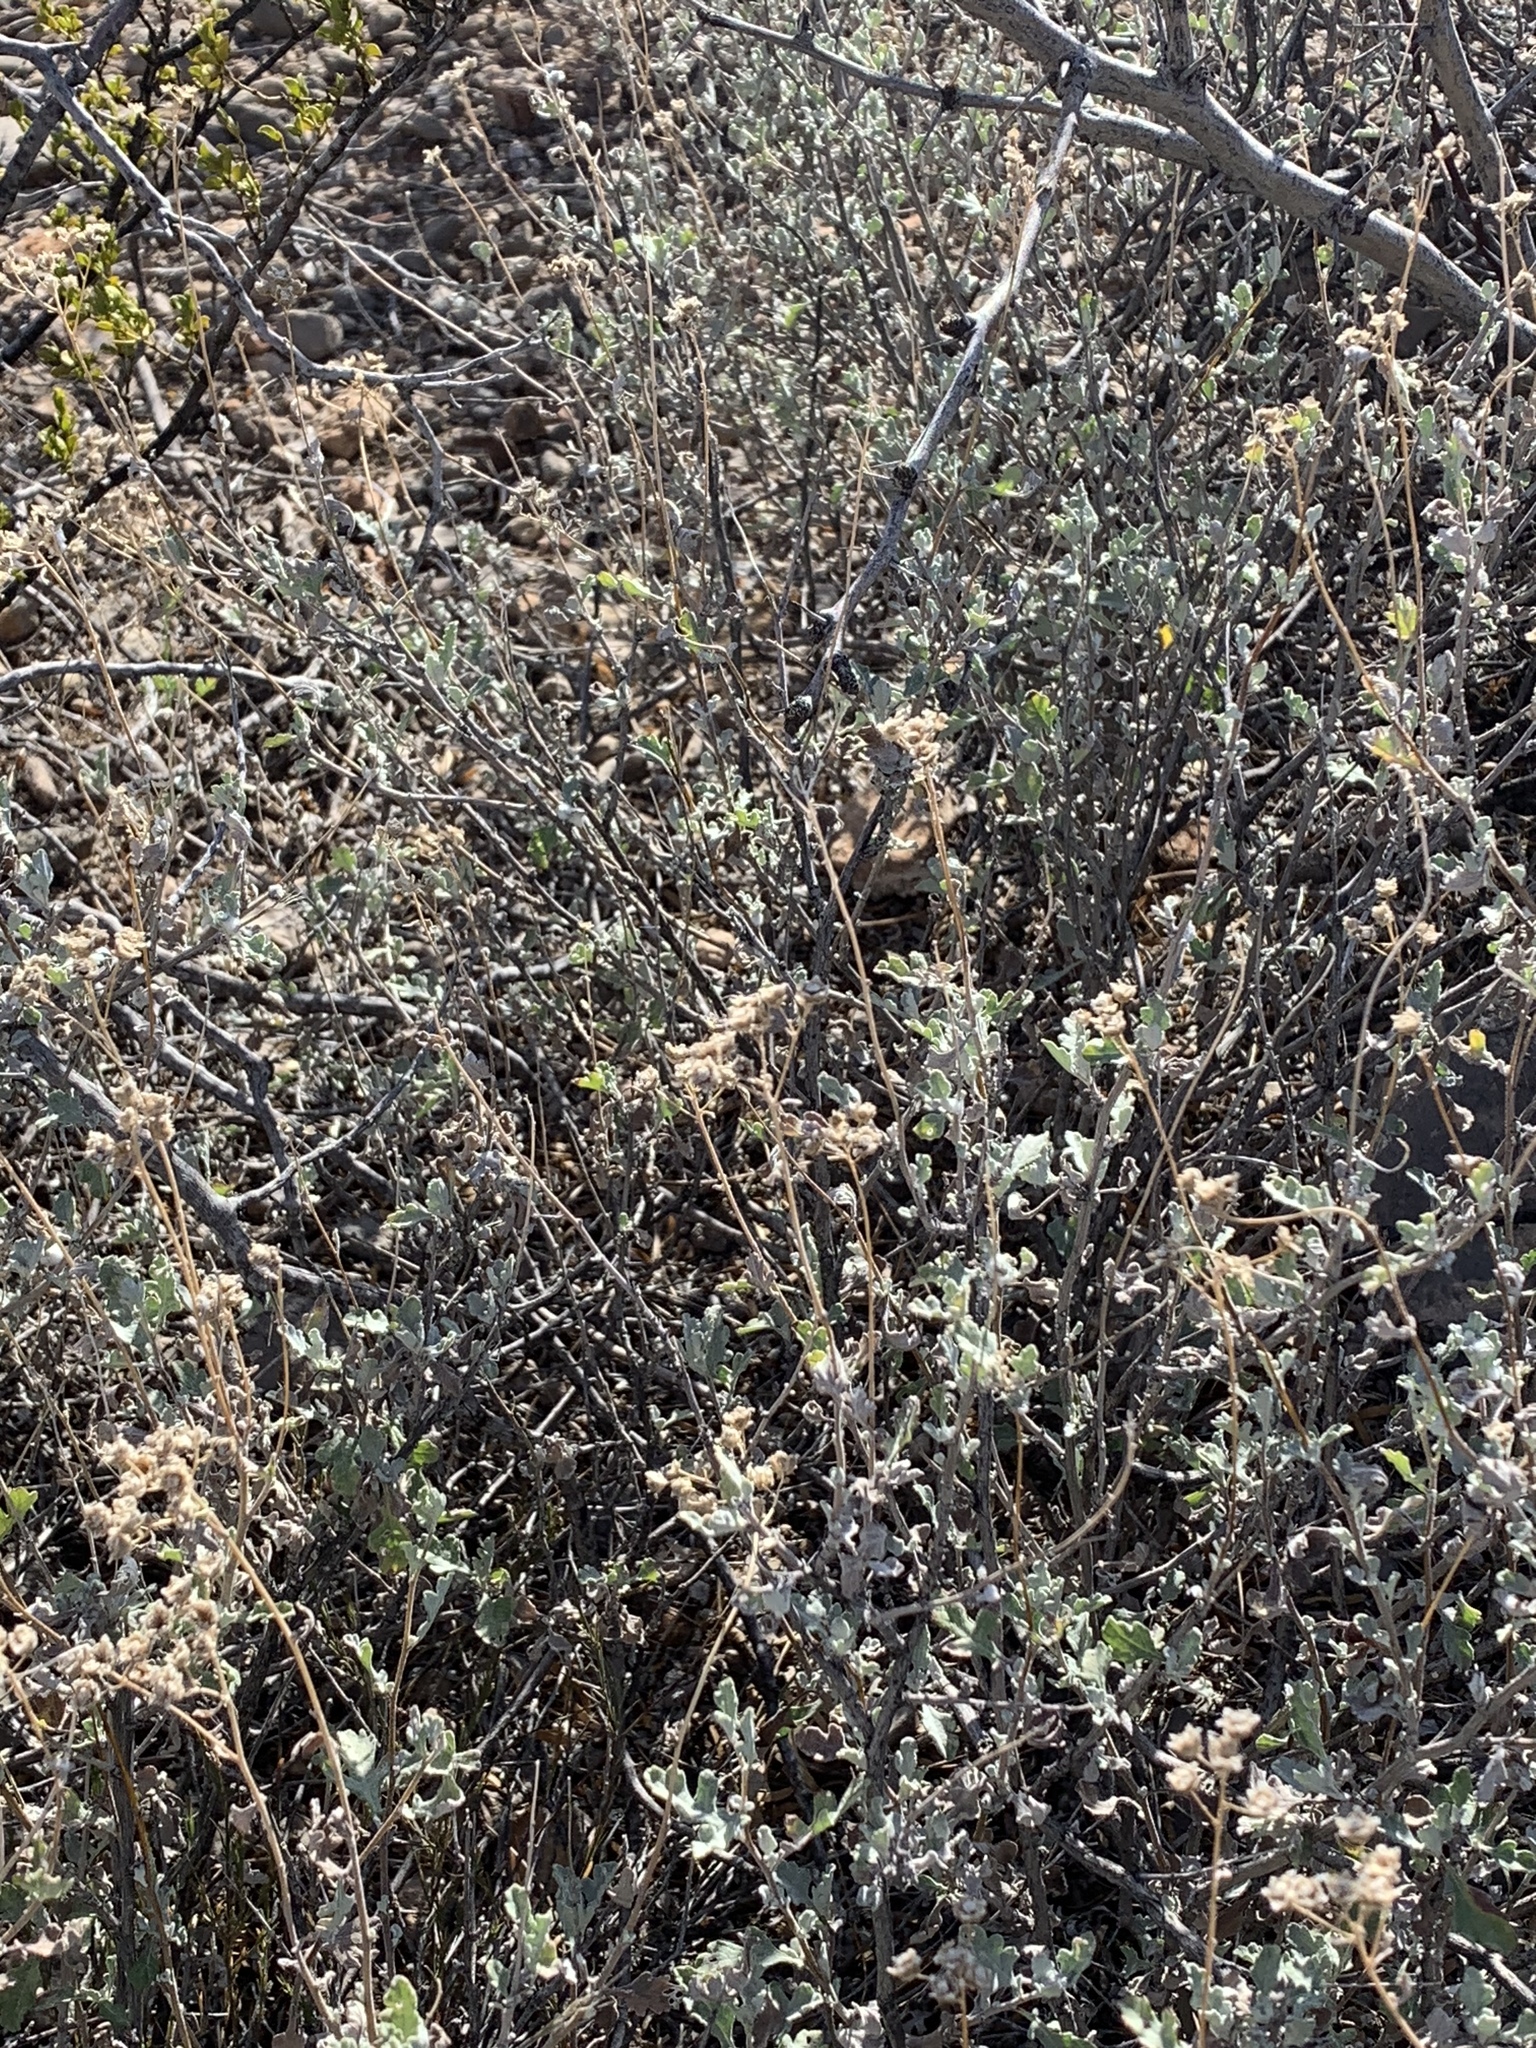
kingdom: Plantae
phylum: Tracheophyta
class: Magnoliopsida
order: Asterales
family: Asteraceae
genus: Parthenium
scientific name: Parthenium incanum
